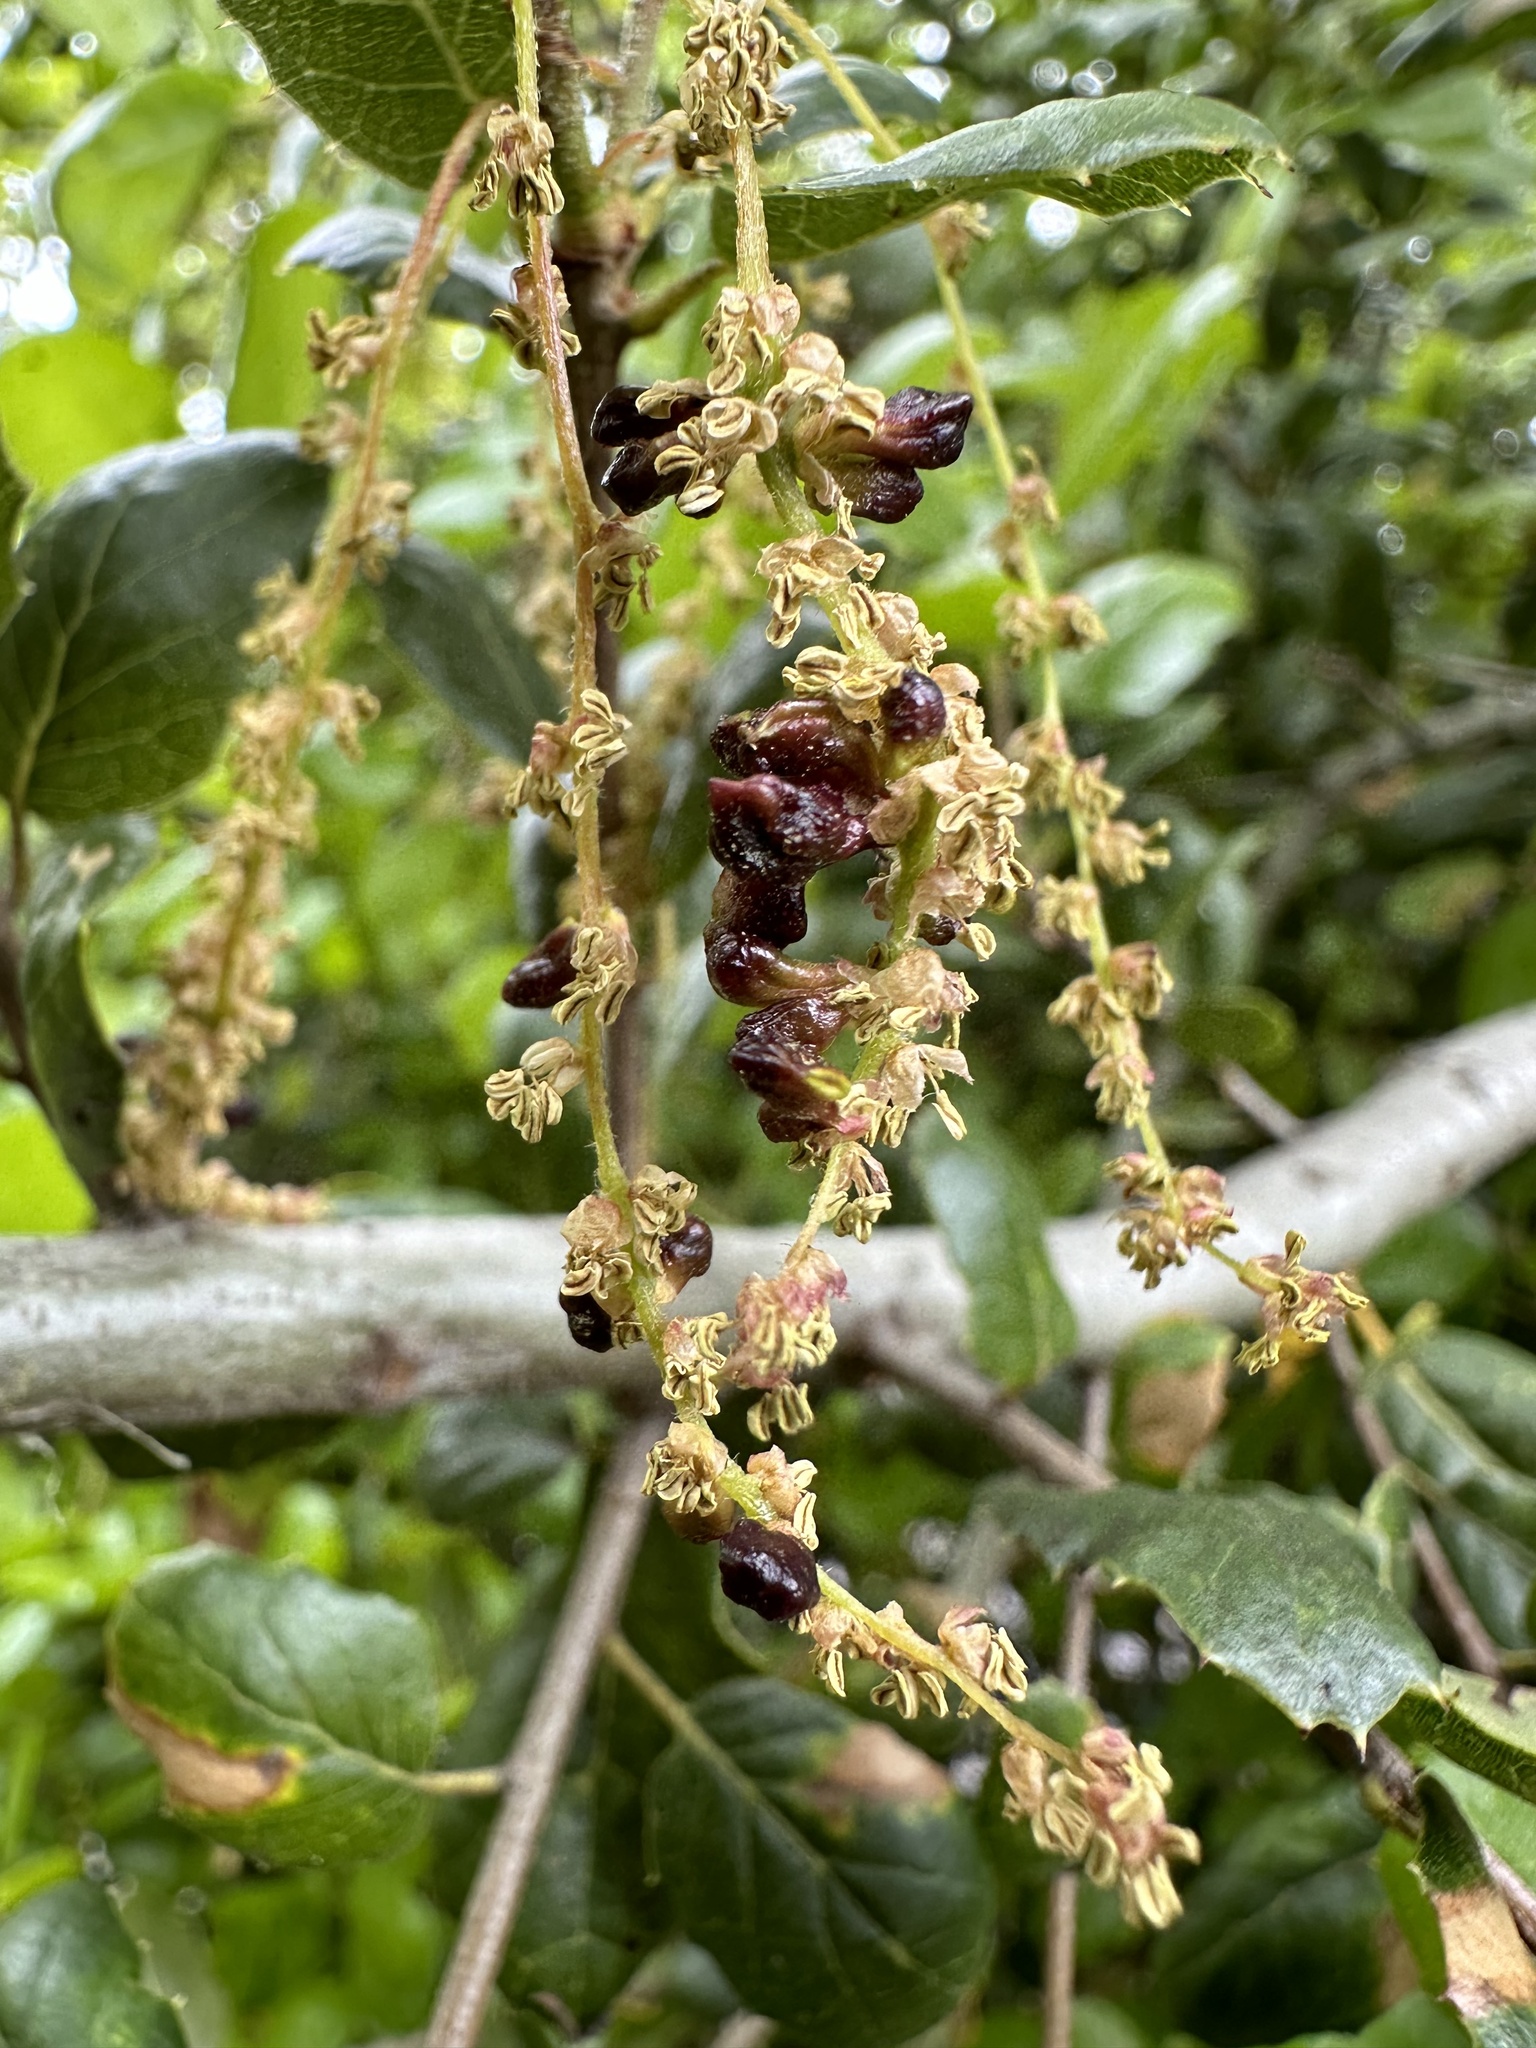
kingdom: Animalia
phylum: Arthropoda
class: Insecta
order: Hymenoptera
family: Cynipidae
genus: Dryocosmus
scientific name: Dryocosmus
